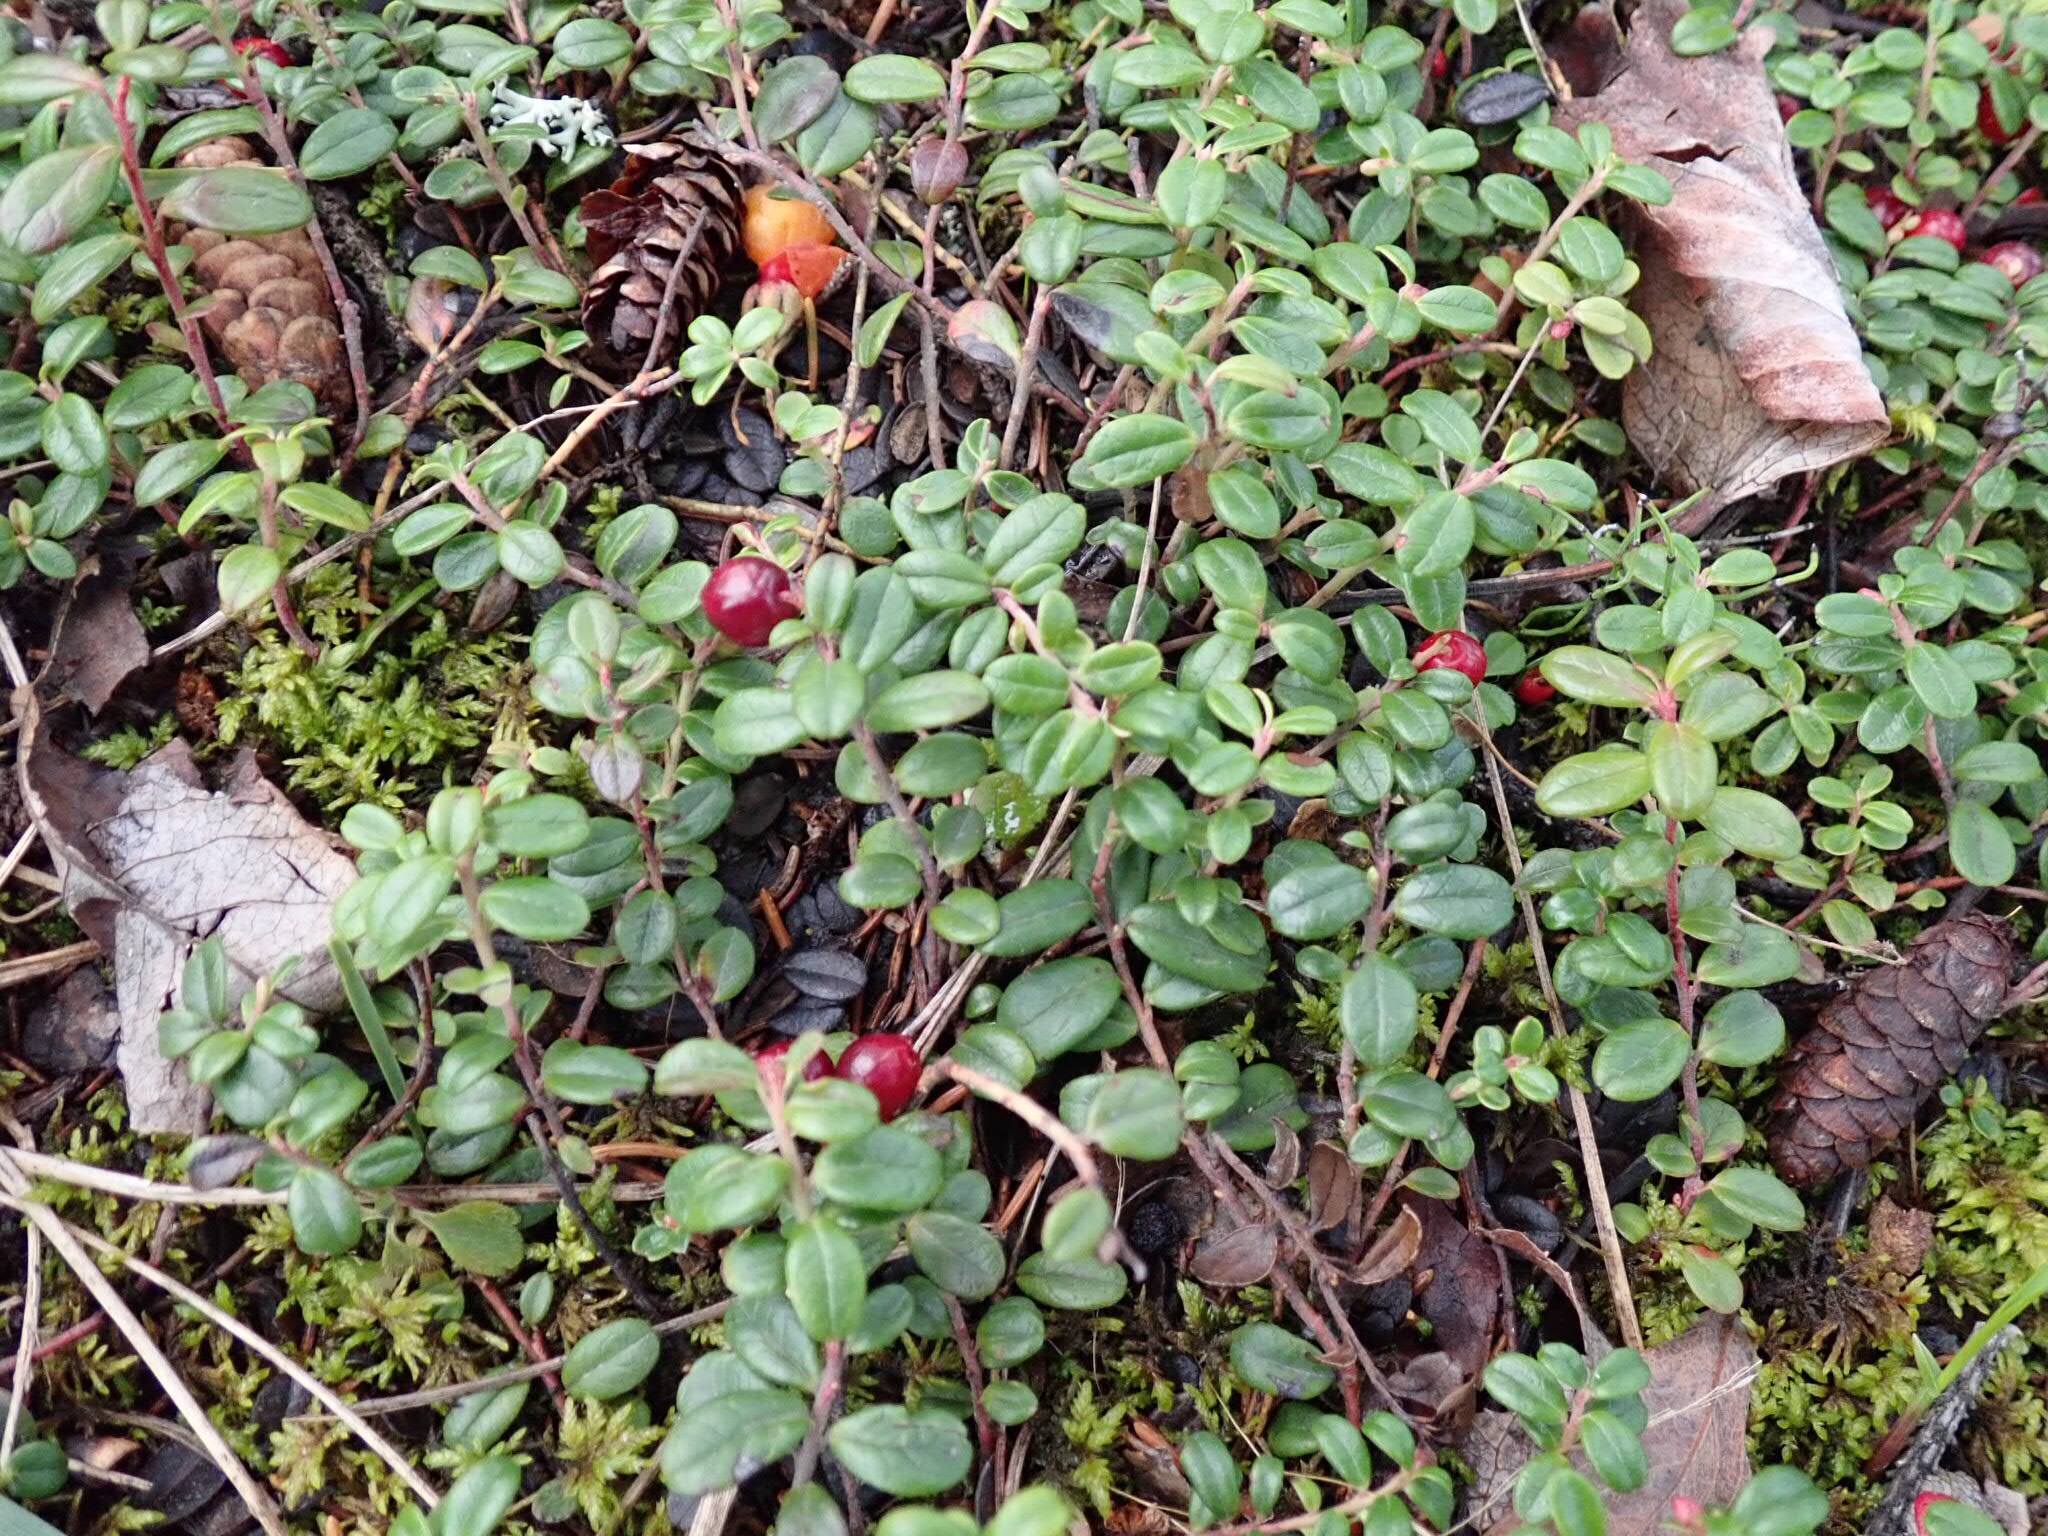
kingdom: Plantae
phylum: Tracheophyta
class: Magnoliopsida
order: Ericales
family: Ericaceae
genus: Vaccinium
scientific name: Vaccinium vitis-idaea
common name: Cowberry
